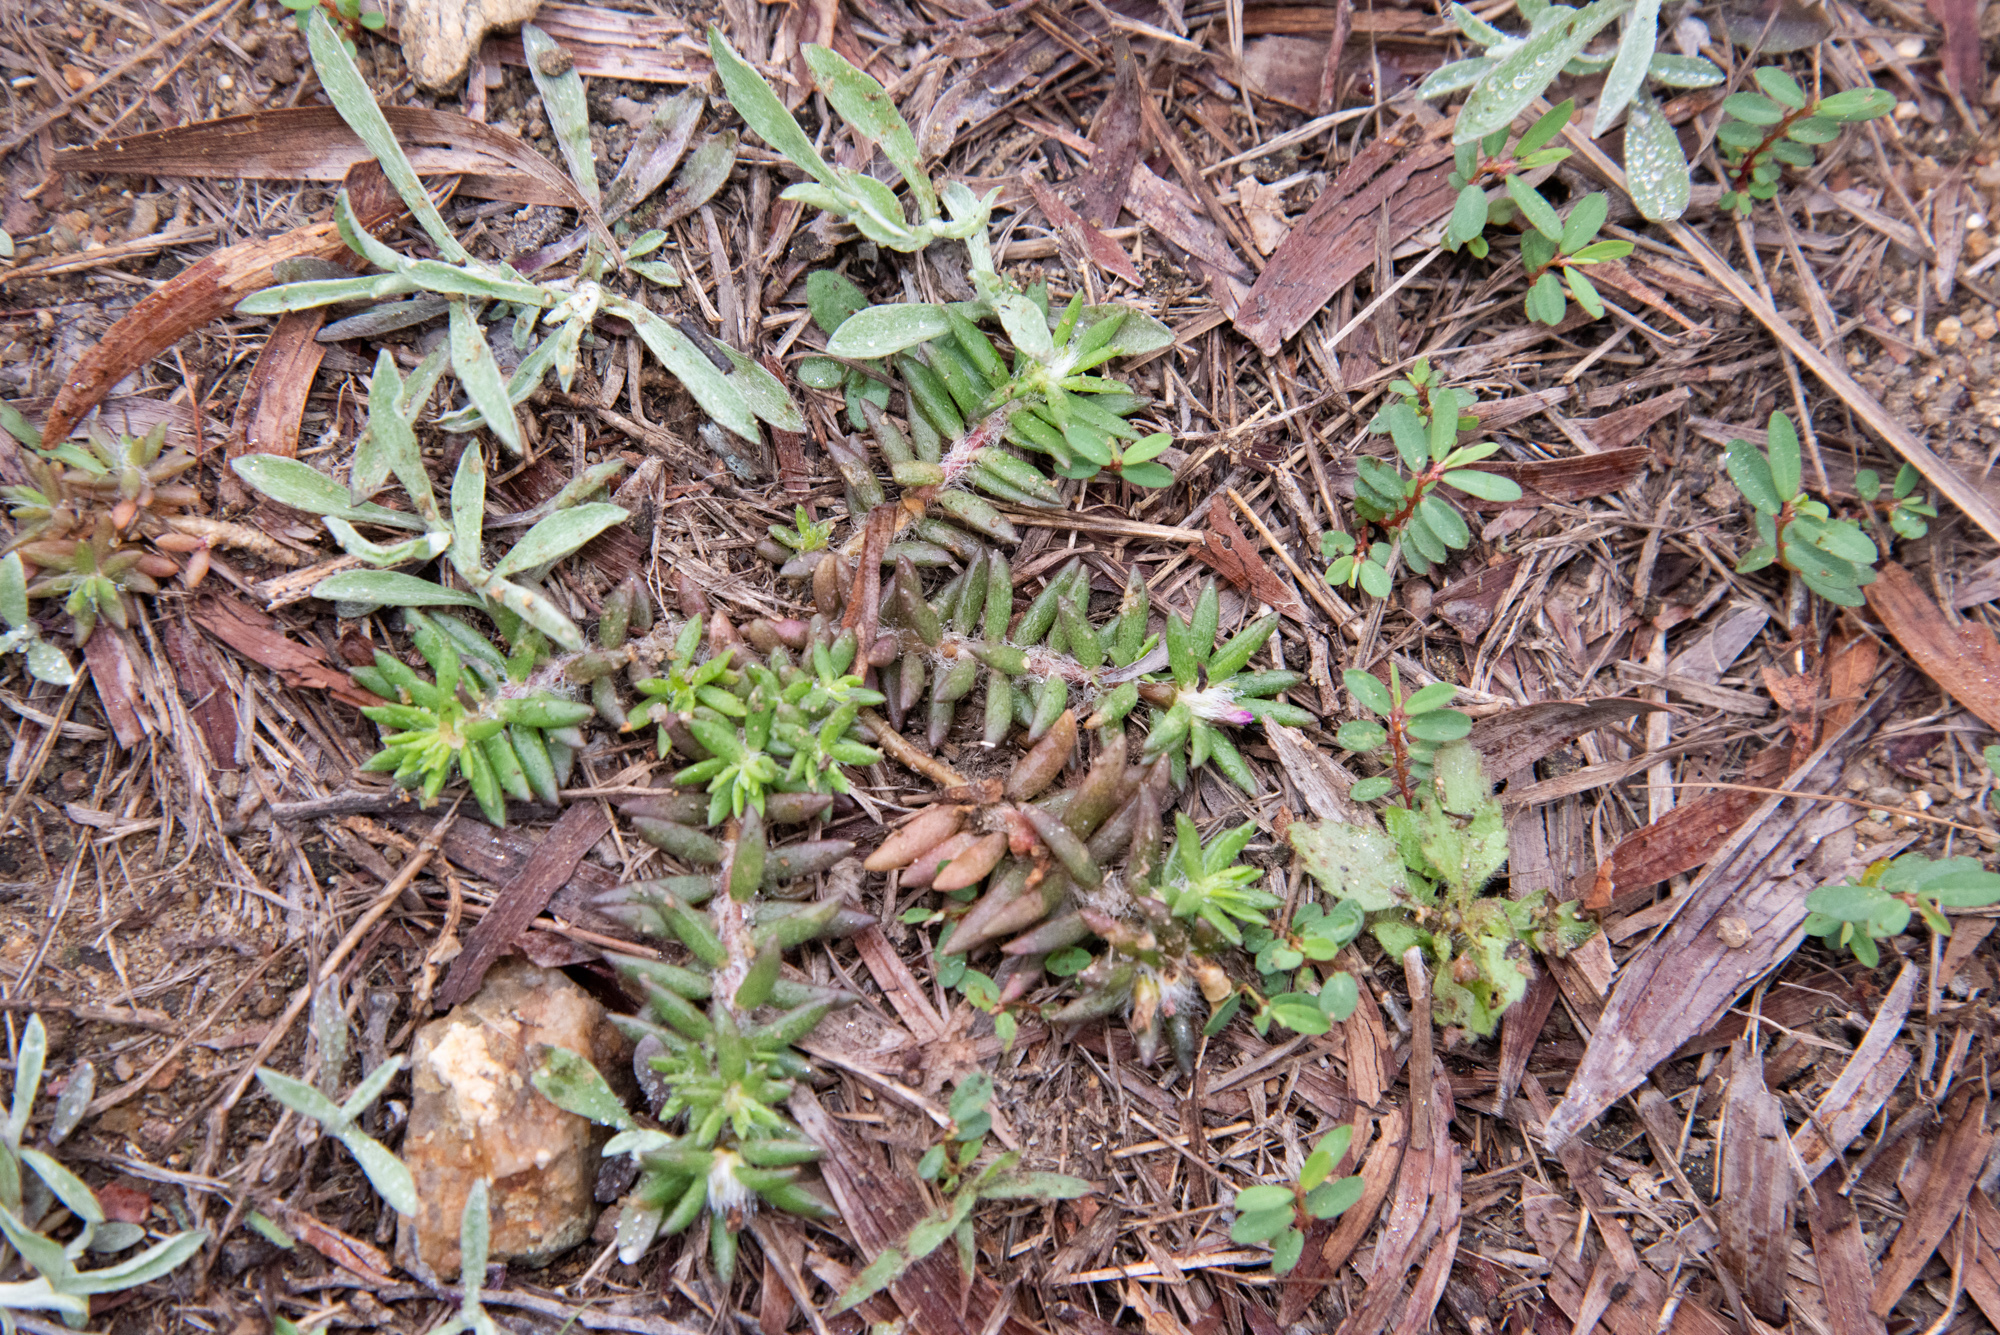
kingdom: Plantae
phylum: Tracheophyta
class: Magnoliopsida
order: Caryophyllales
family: Portulacaceae
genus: Portulaca
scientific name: Portulaca pilosa
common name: Kiss me quick
